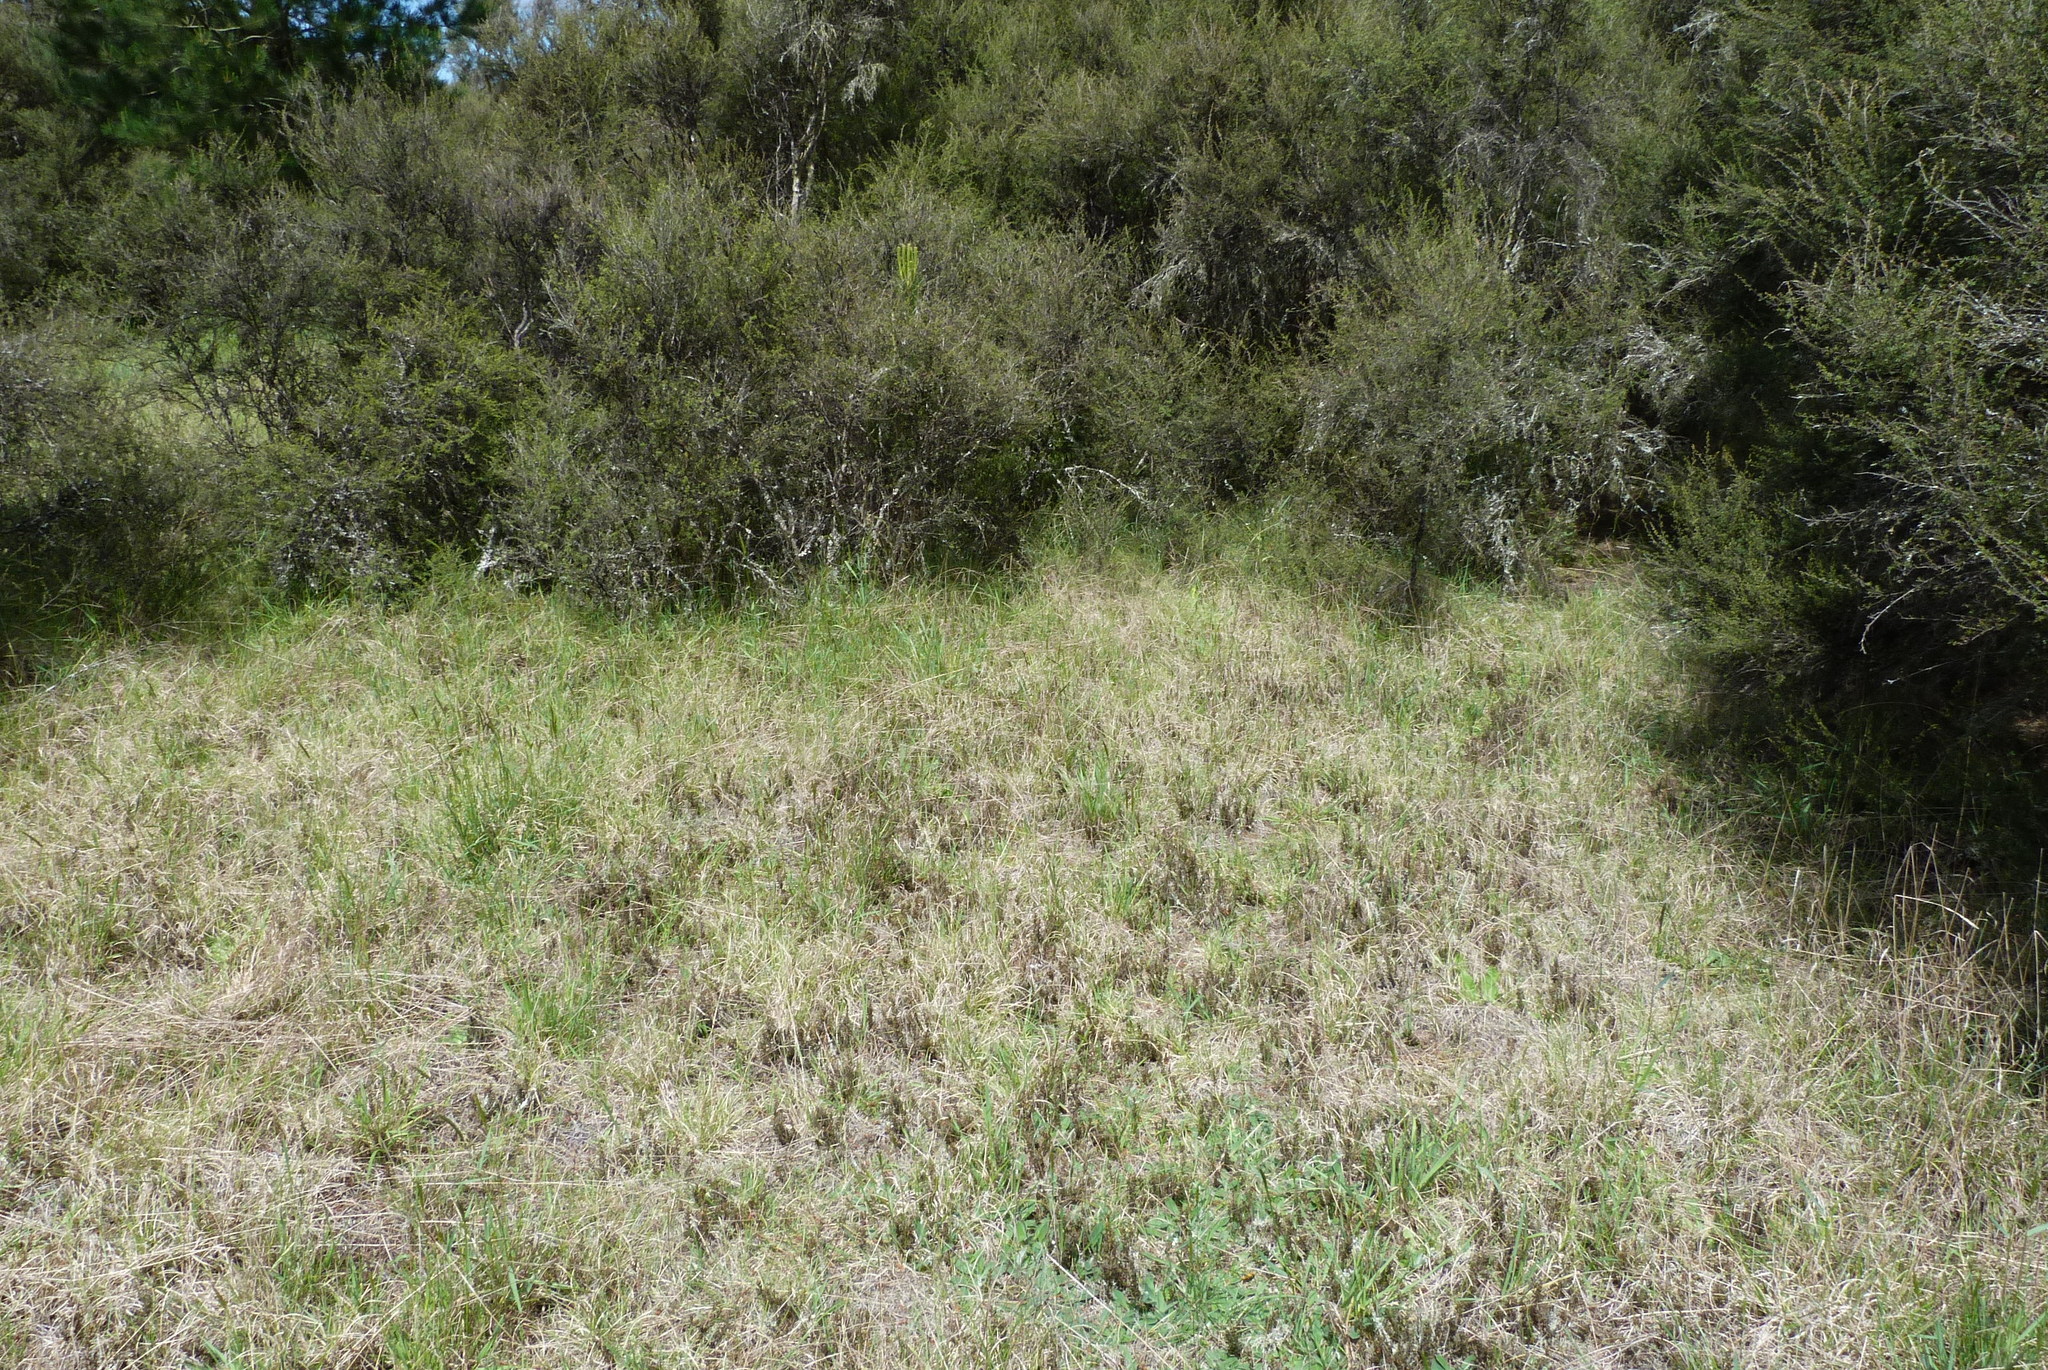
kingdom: Plantae
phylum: Tracheophyta
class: Magnoliopsida
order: Ericales
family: Ericaceae
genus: Styphelia
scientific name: Styphelia nesophila
